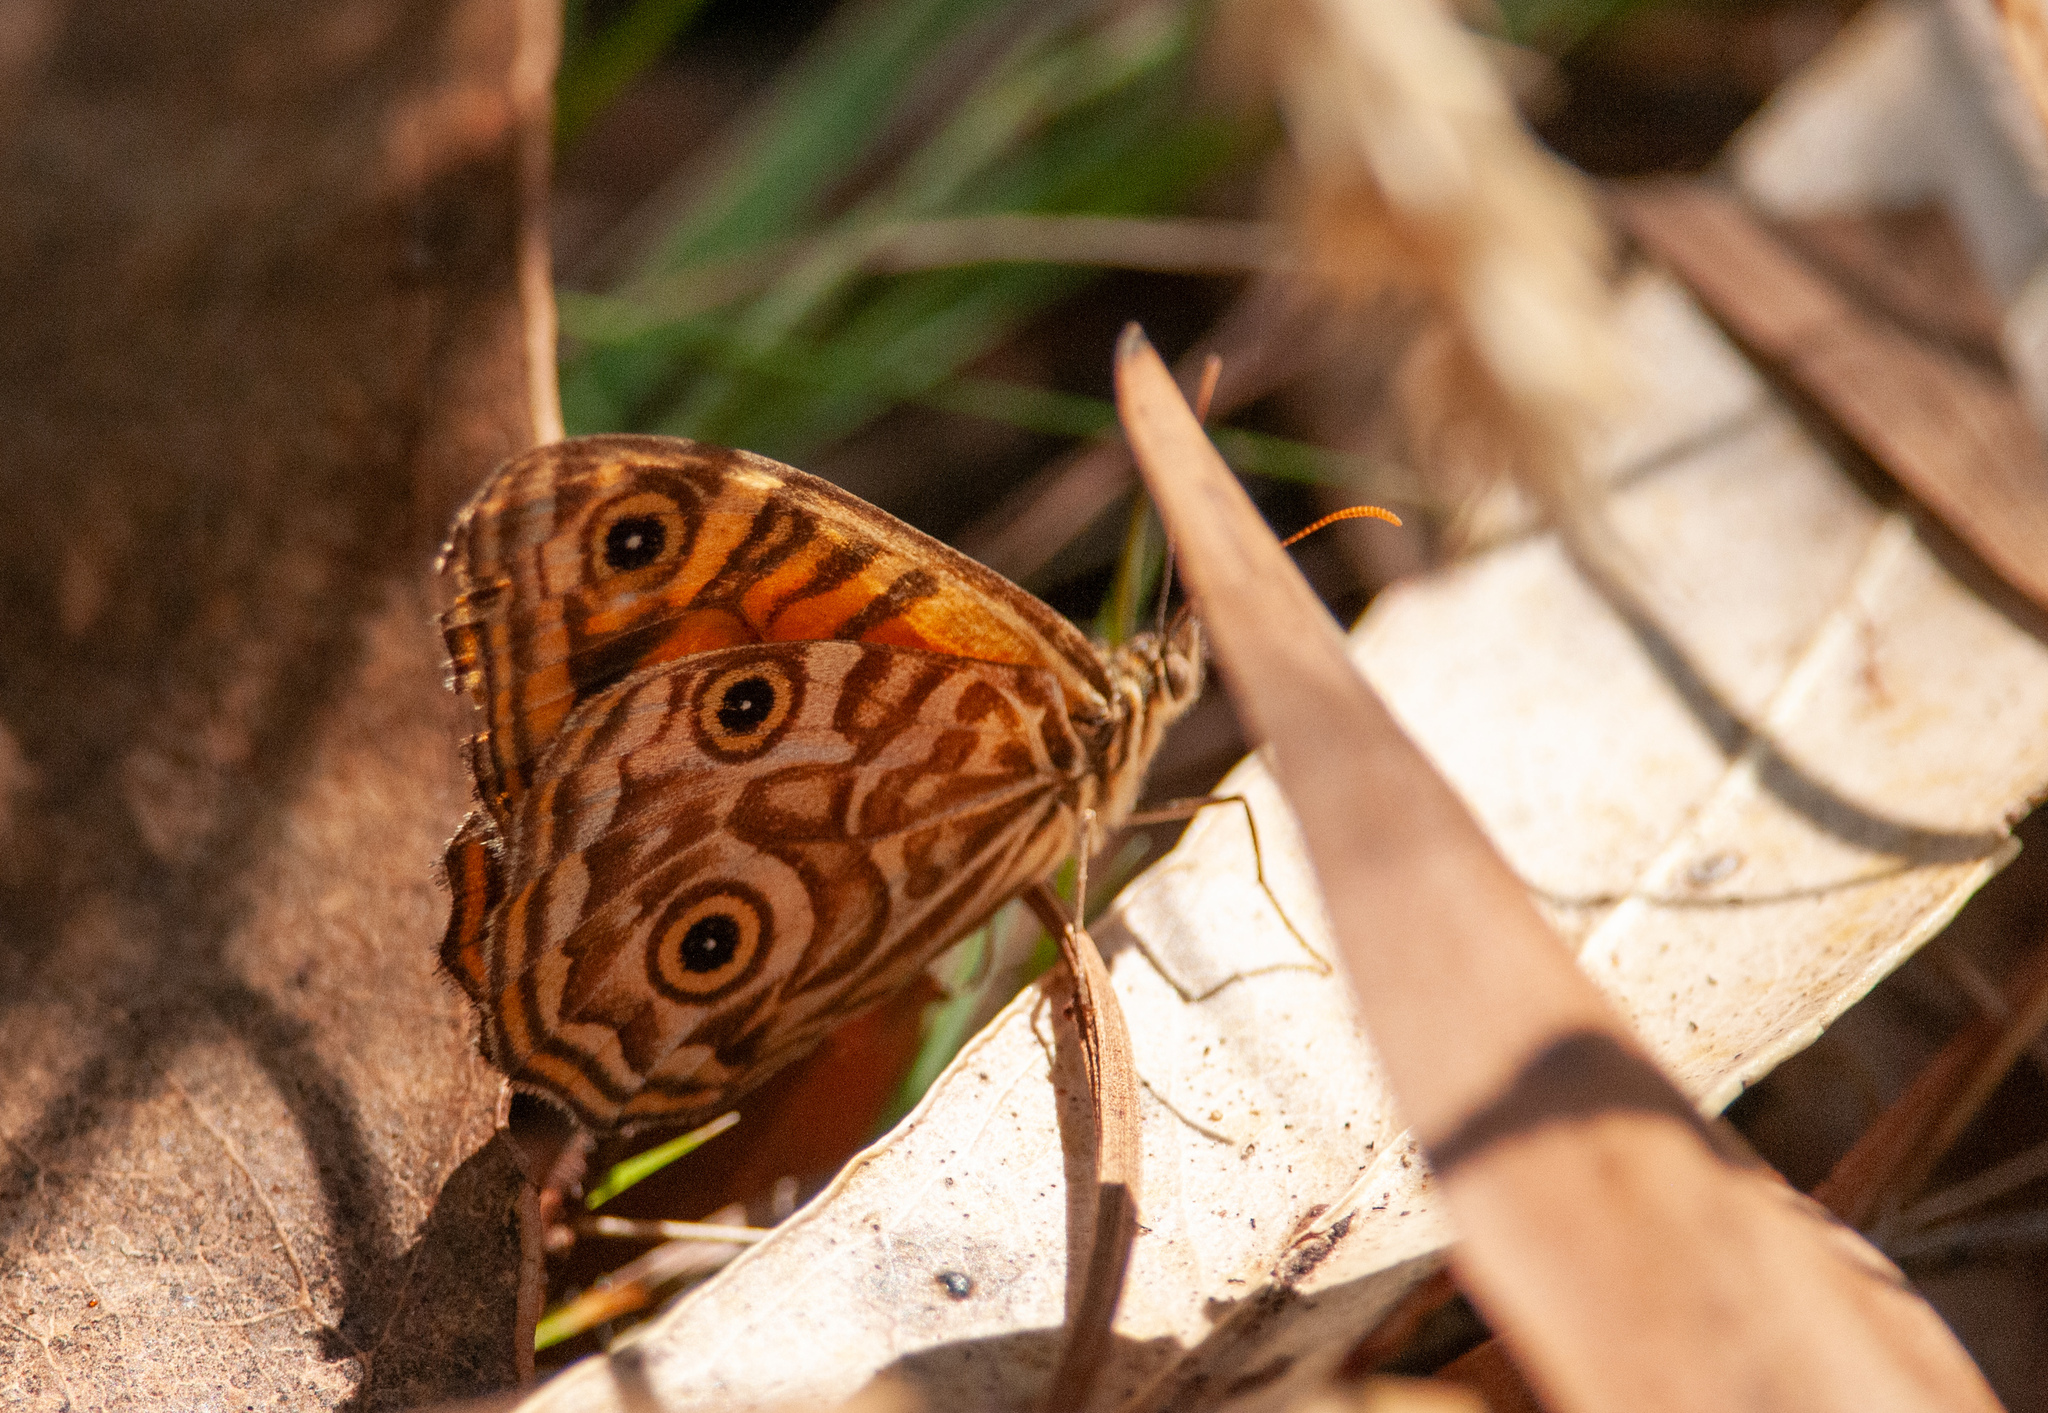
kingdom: Animalia
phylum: Arthropoda
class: Insecta
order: Lepidoptera
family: Nymphalidae
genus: Geitoneura
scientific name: Geitoneura acantha
